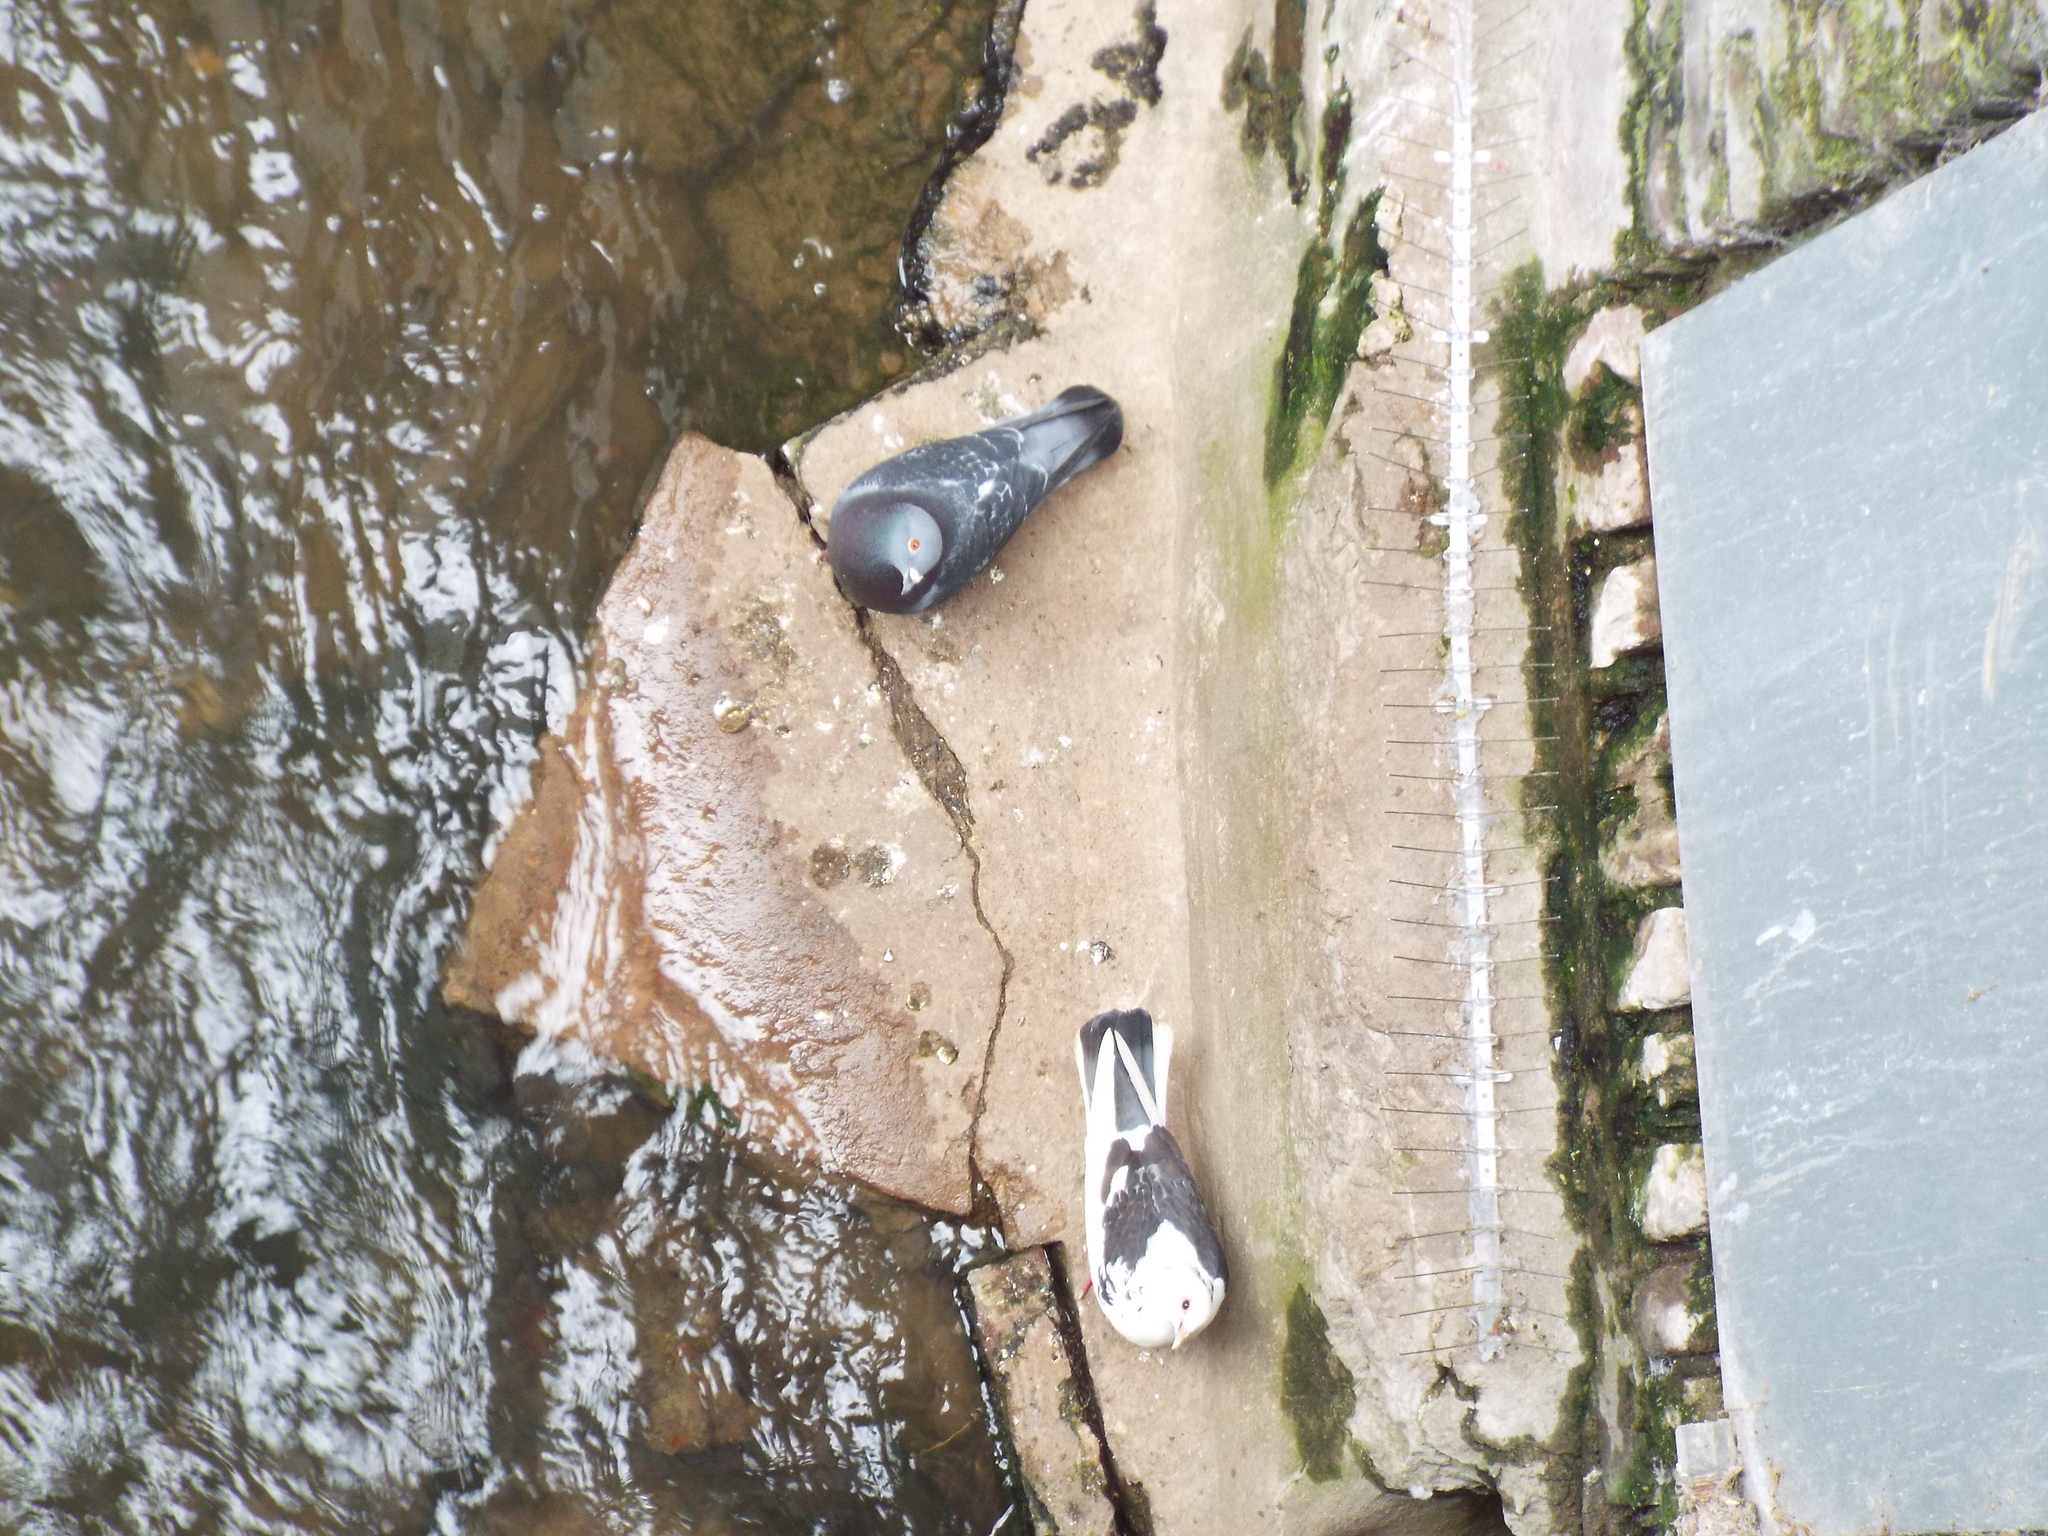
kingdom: Animalia
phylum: Chordata
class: Aves
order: Columbiformes
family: Columbidae
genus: Columba
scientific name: Columba livia
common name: Rock pigeon
